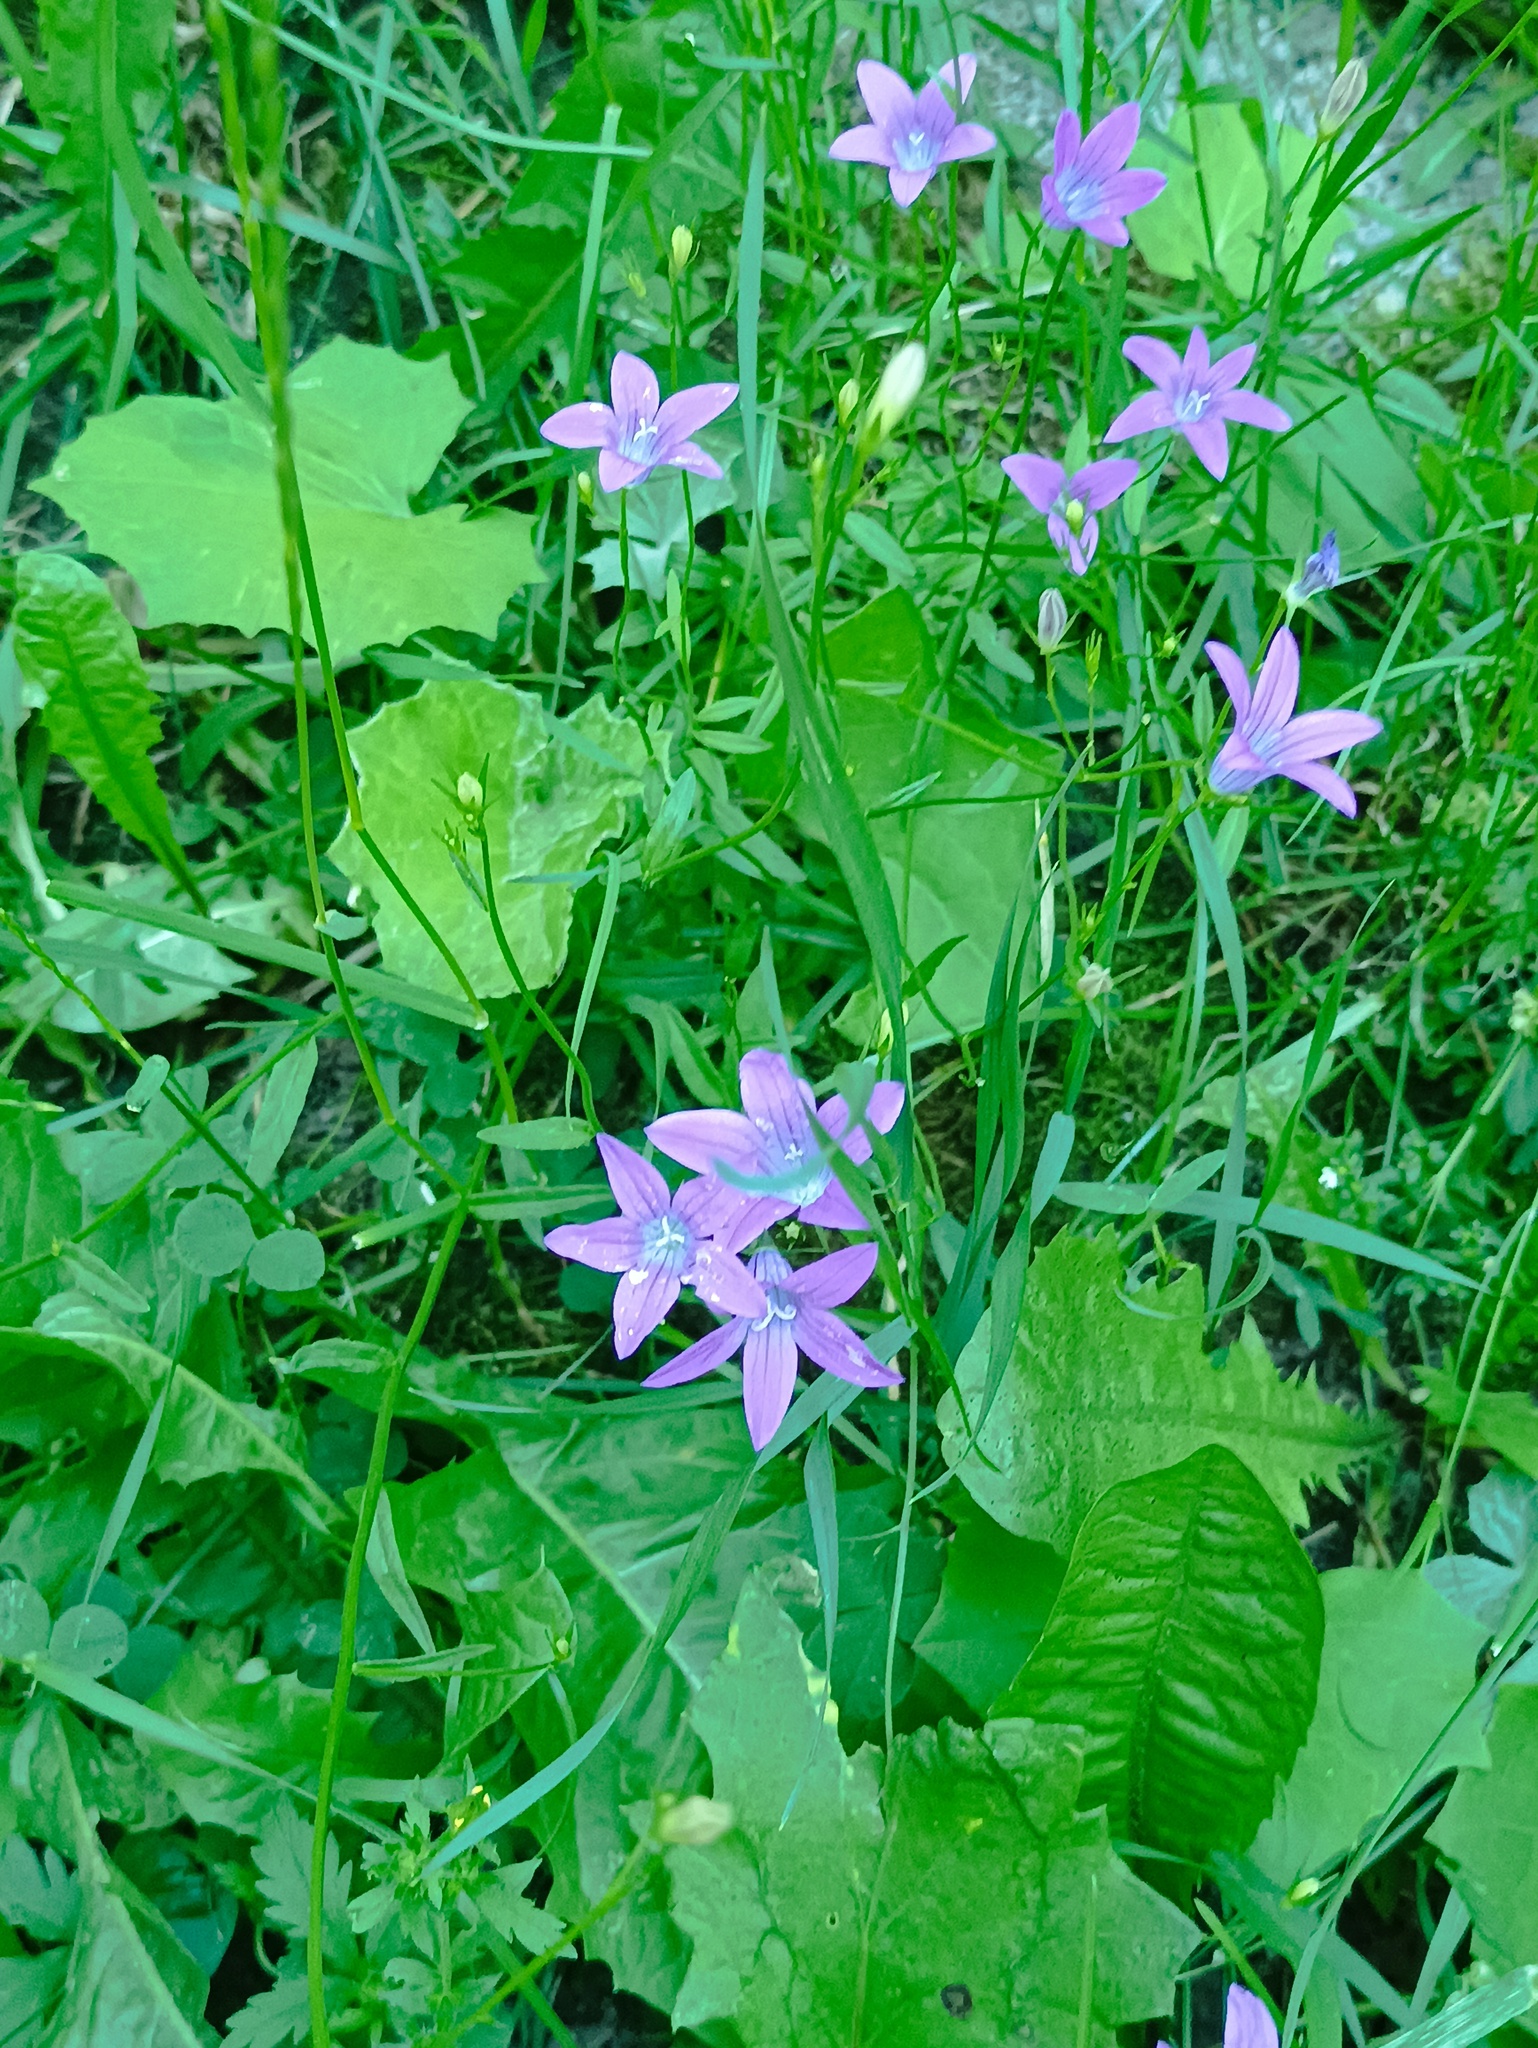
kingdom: Plantae
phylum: Tracheophyta
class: Magnoliopsida
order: Asterales
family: Campanulaceae
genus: Campanula
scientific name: Campanula patula
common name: Spreading bellflower
